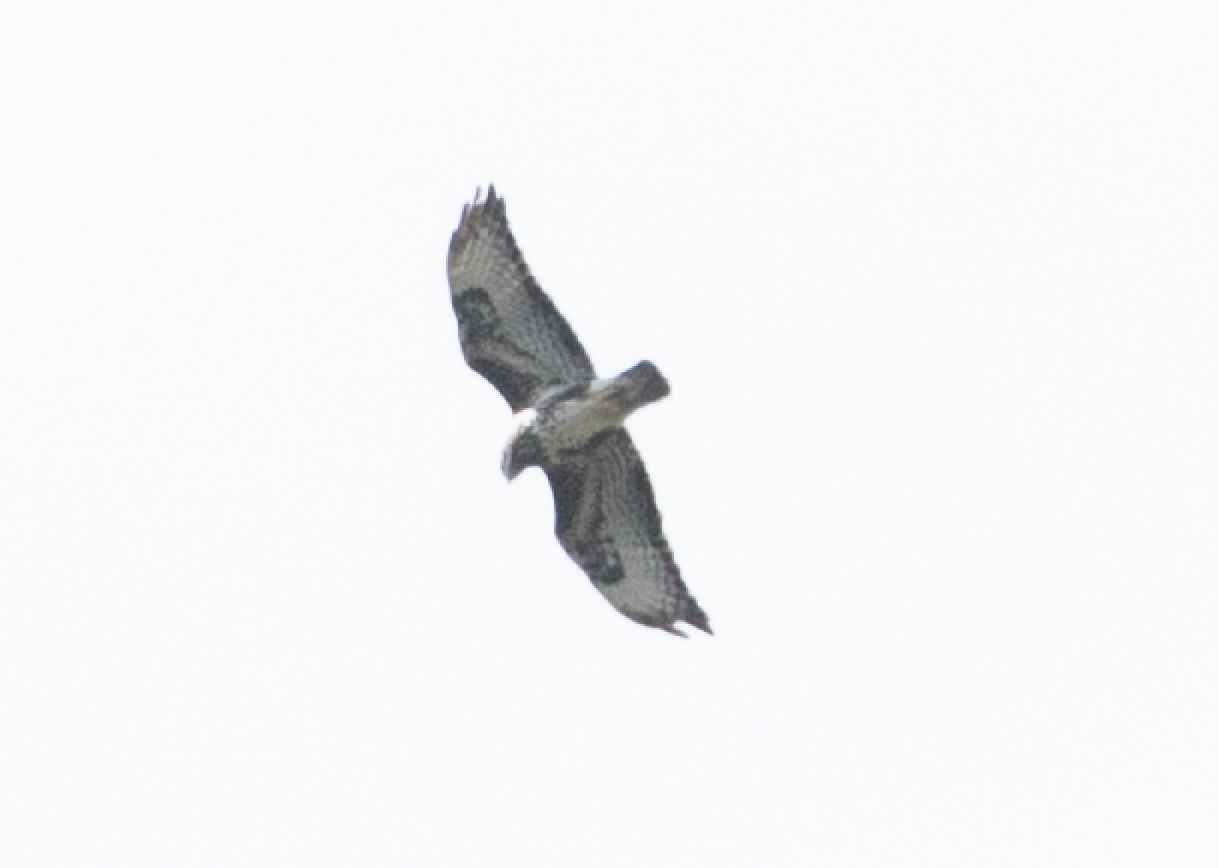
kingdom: Animalia
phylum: Chordata
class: Aves
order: Accipitriformes
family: Accipitridae
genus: Buteo
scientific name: Buteo buteo
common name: Common buzzard
